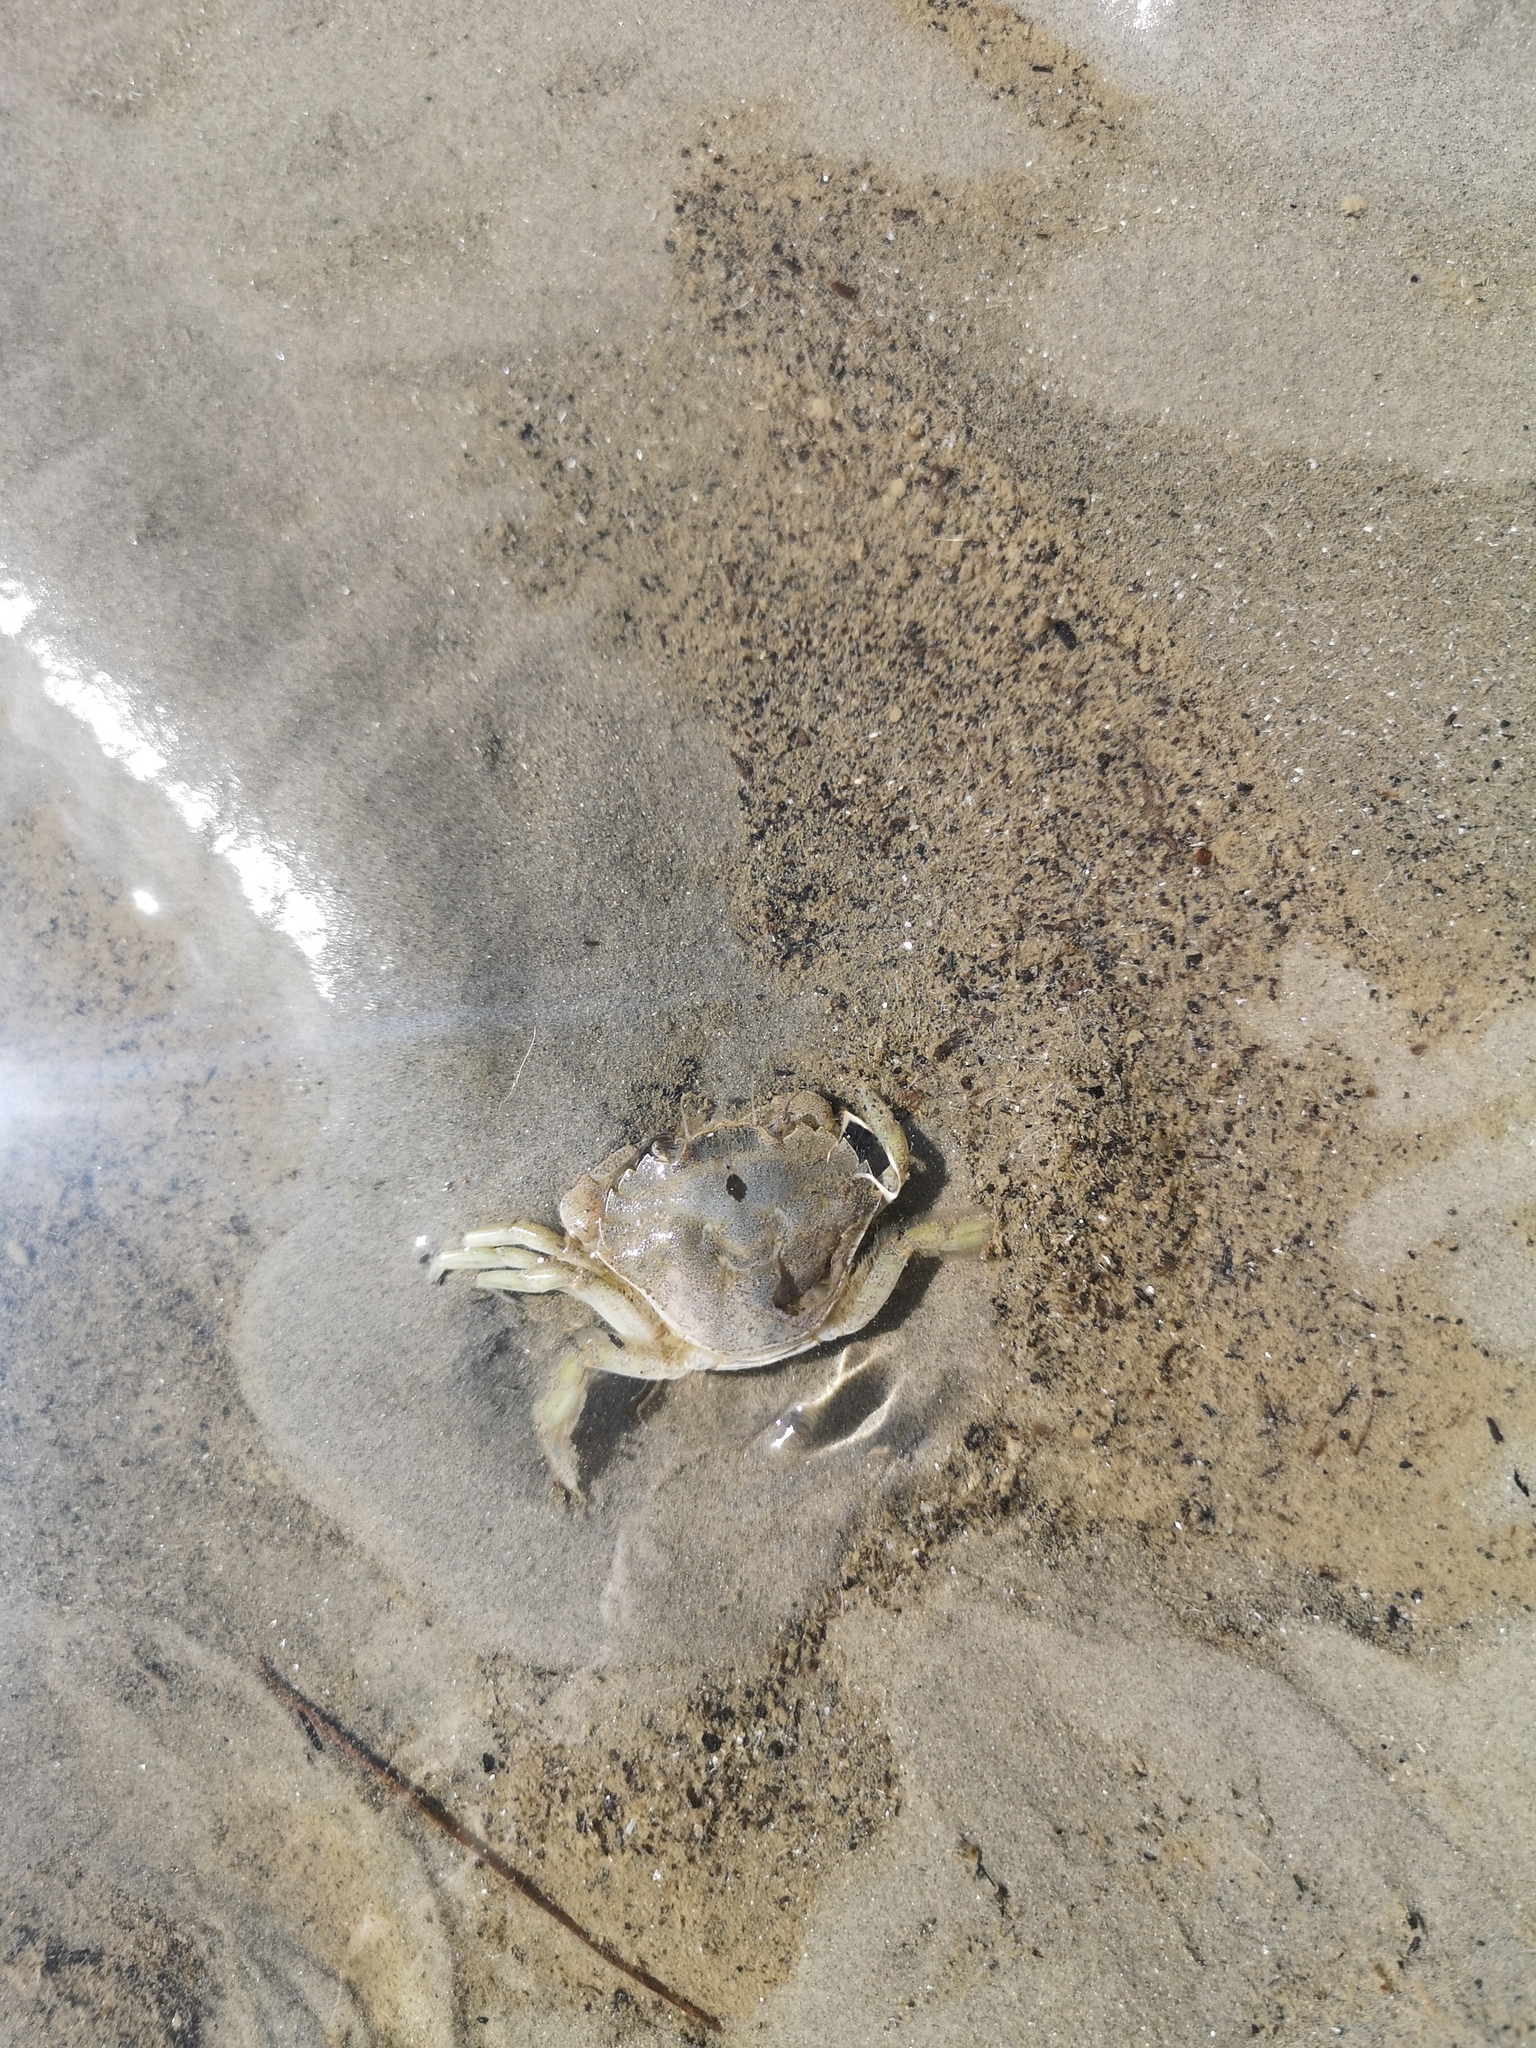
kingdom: Animalia
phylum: Arthropoda
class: Malacostraca
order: Decapoda
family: Carcinidae
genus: Carcinus
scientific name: Carcinus maenas
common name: European green crab
